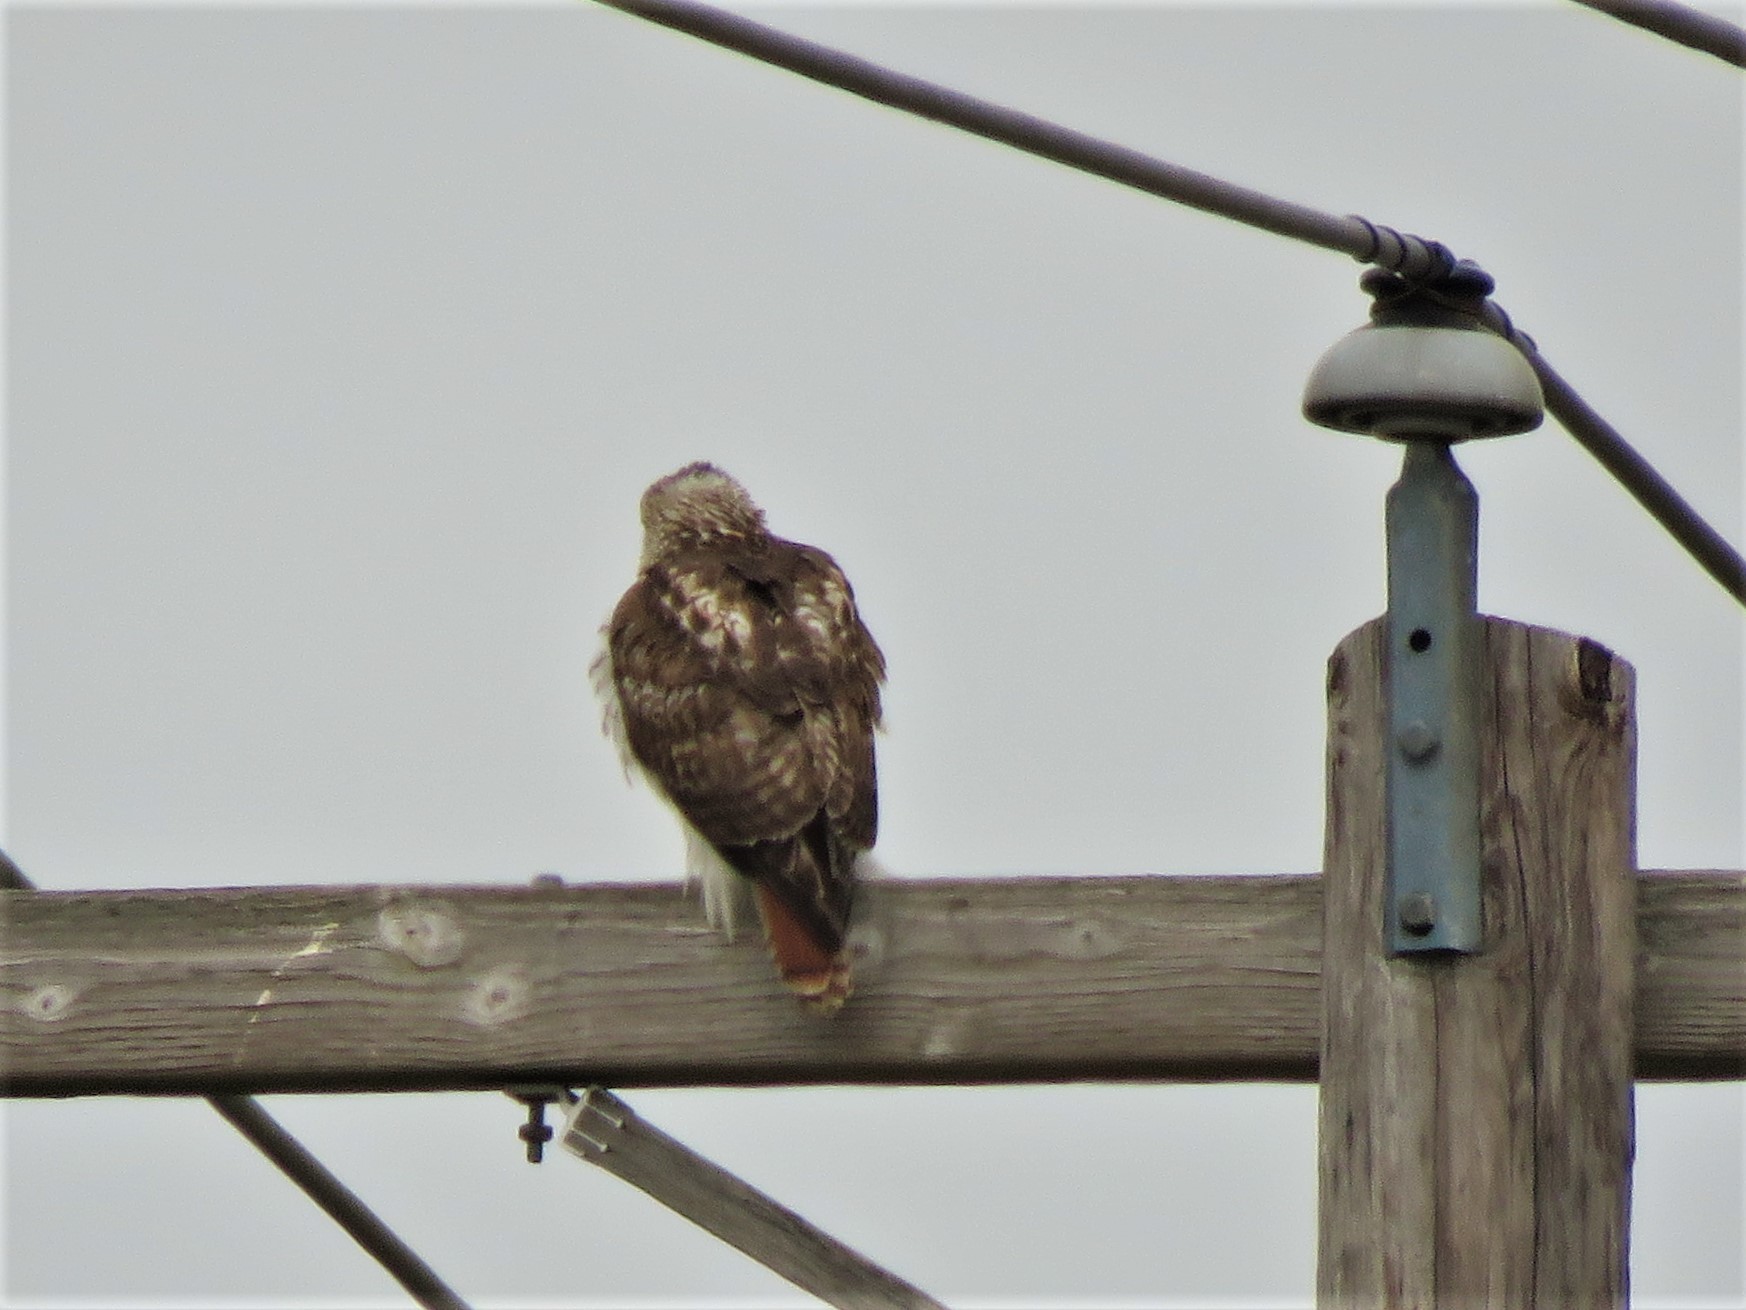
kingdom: Animalia
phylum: Chordata
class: Aves
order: Accipitriformes
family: Accipitridae
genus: Buteo
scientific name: Buteo jamaicensis
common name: Red-tailed hawk
